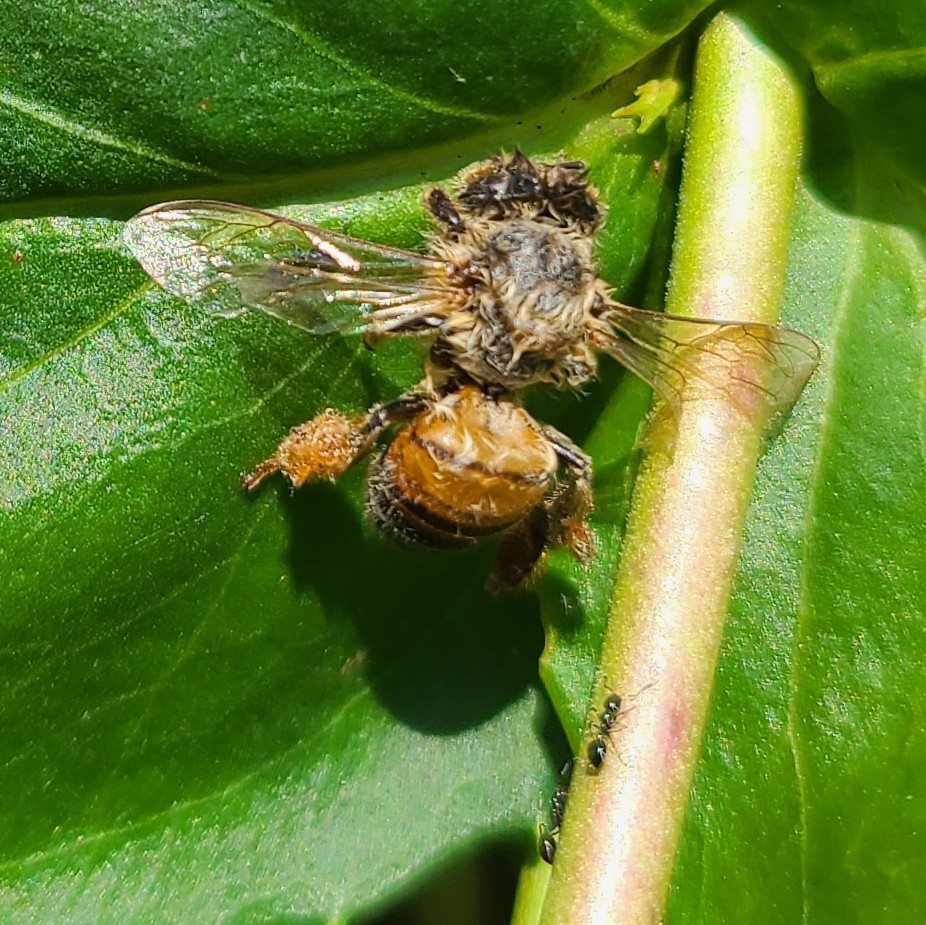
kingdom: Animalia
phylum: Arthropoda
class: Insecta
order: Hymenoptera
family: Apidae
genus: Apis
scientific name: Apis mellifera
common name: Honey bee
